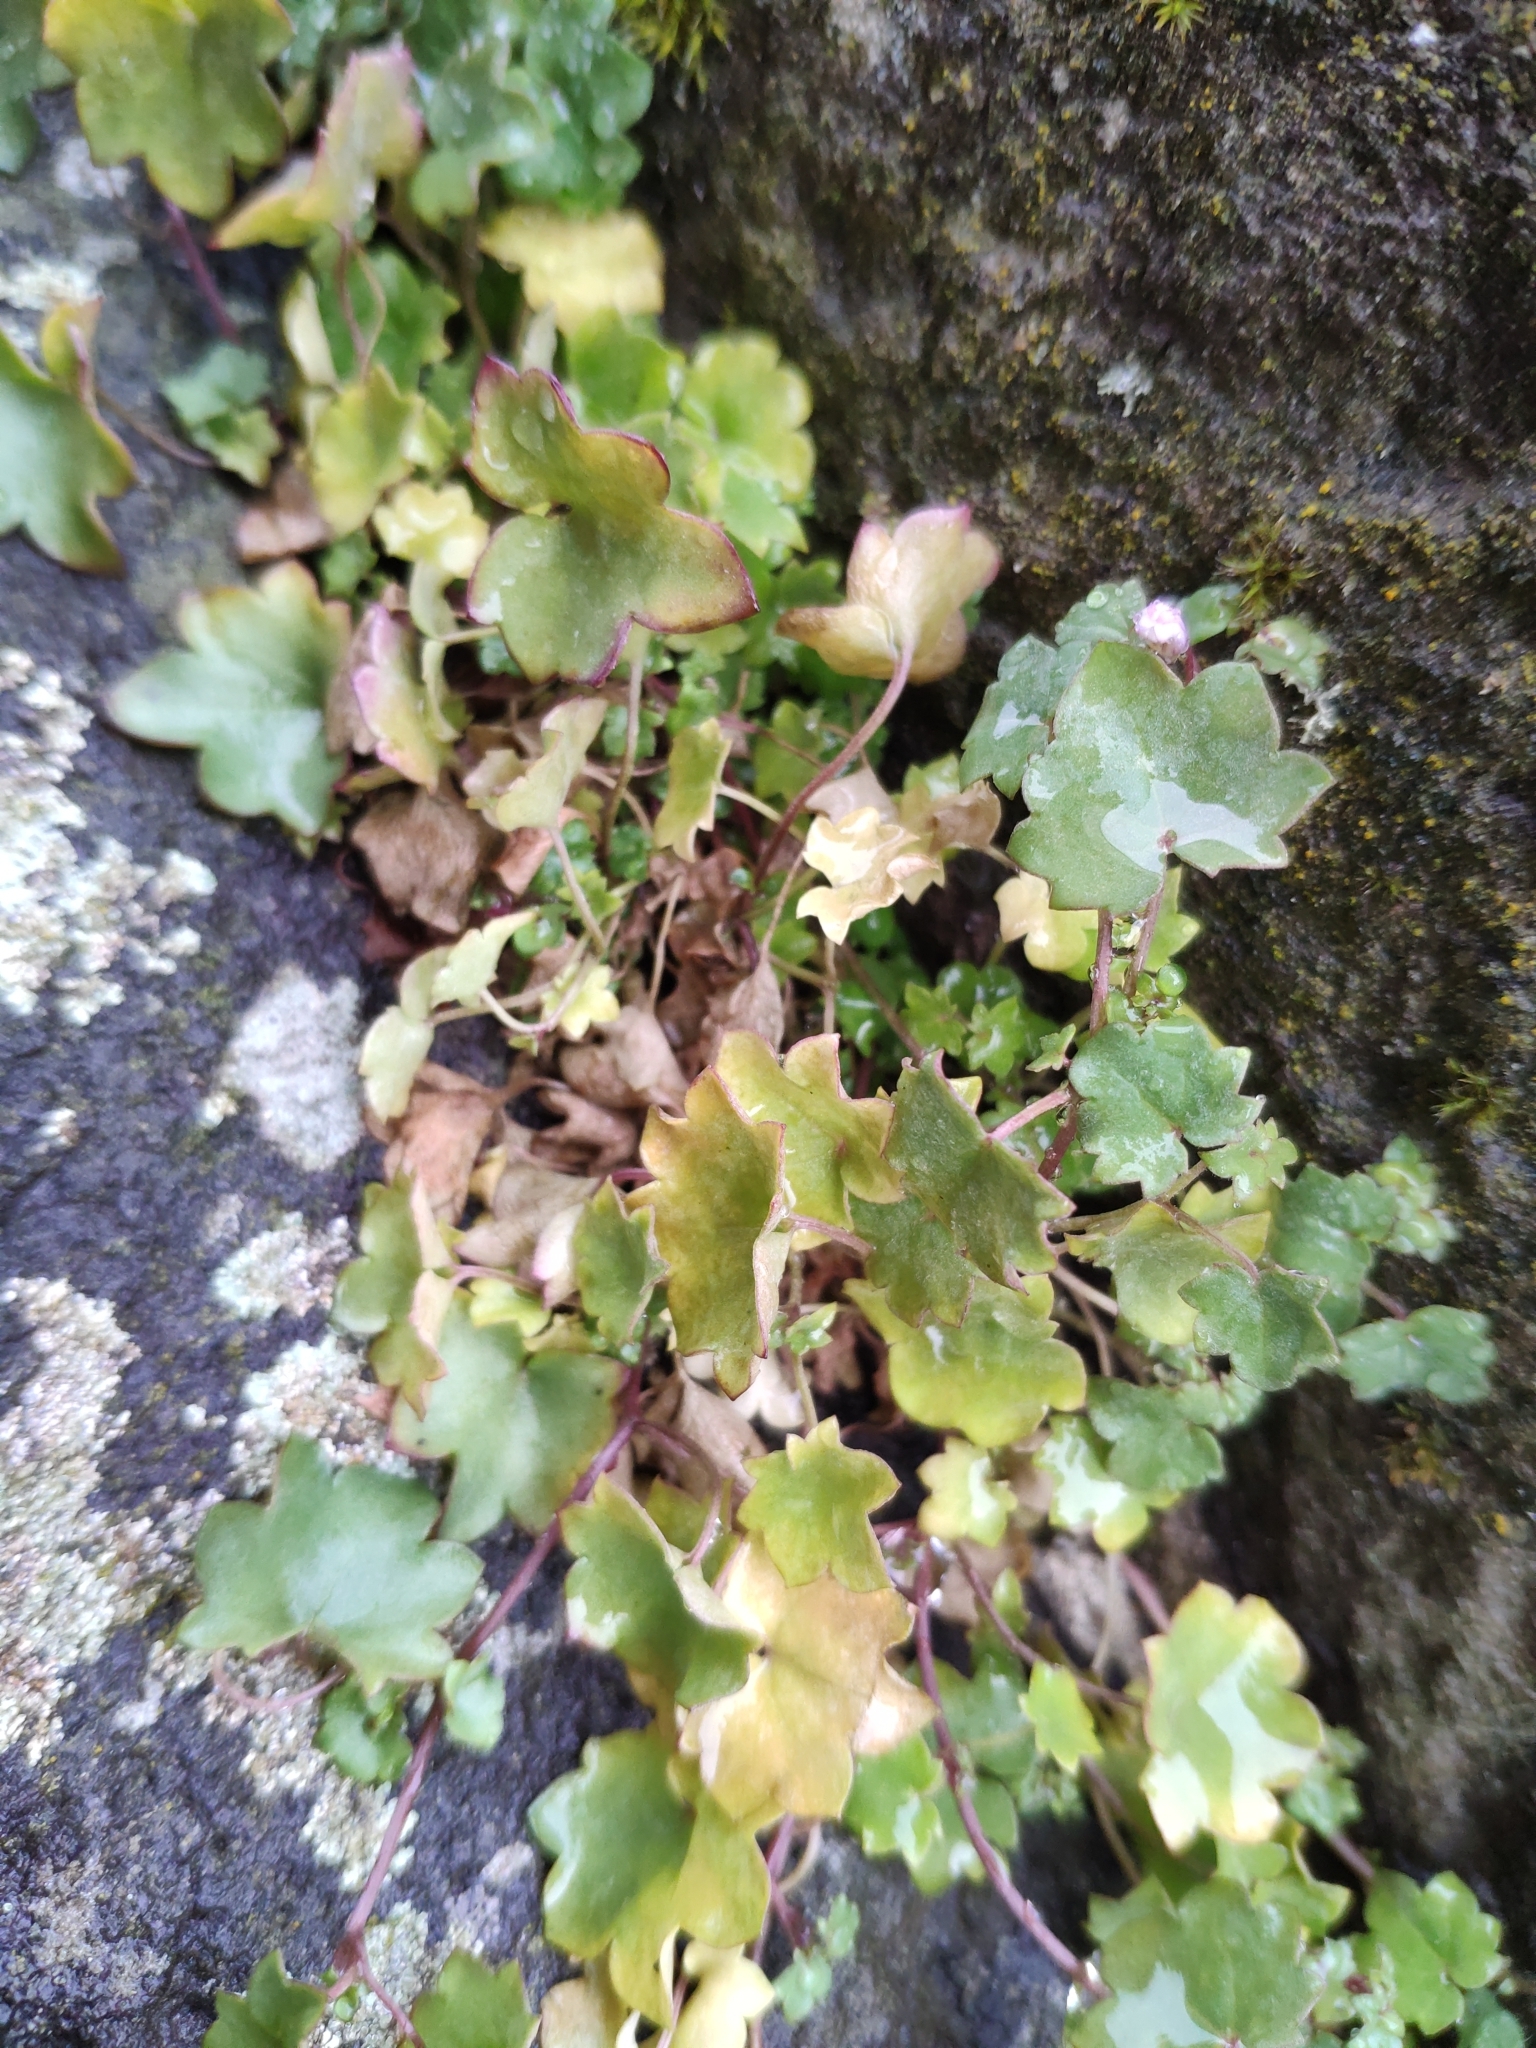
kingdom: Plantae
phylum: Tracheophyta
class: Magnoliopsida
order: Lamiales
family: Plantaginaceae
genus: Cymbalaria
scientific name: Cymbalaria muralis
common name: Ivy-leaved toadflax
